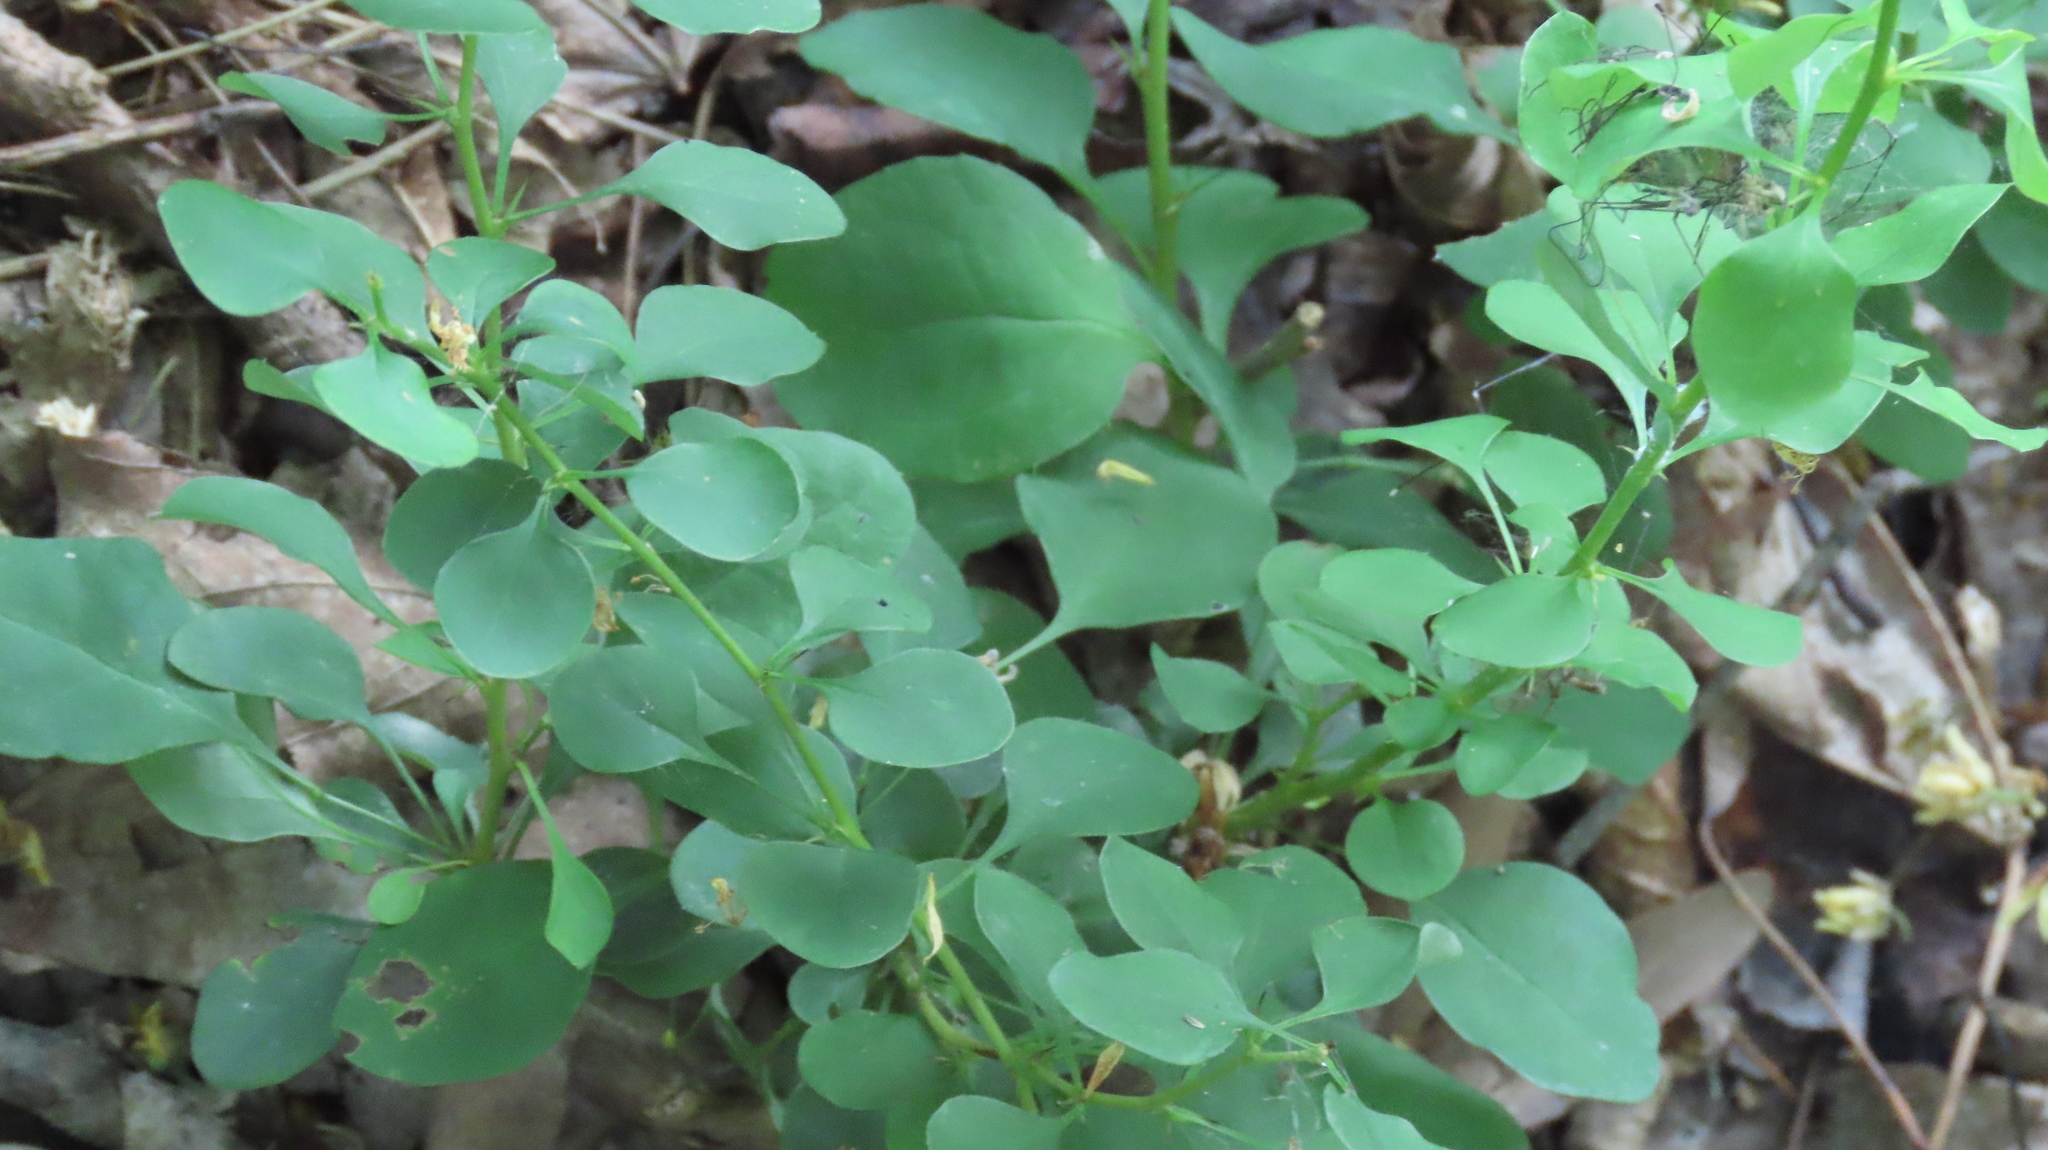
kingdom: Plantae
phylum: Tracheophyta
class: Magnoliopsida
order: Ranunculales
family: Berberidaceae
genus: Berberis
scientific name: Berberis thunbergii
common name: Japanese barberry
